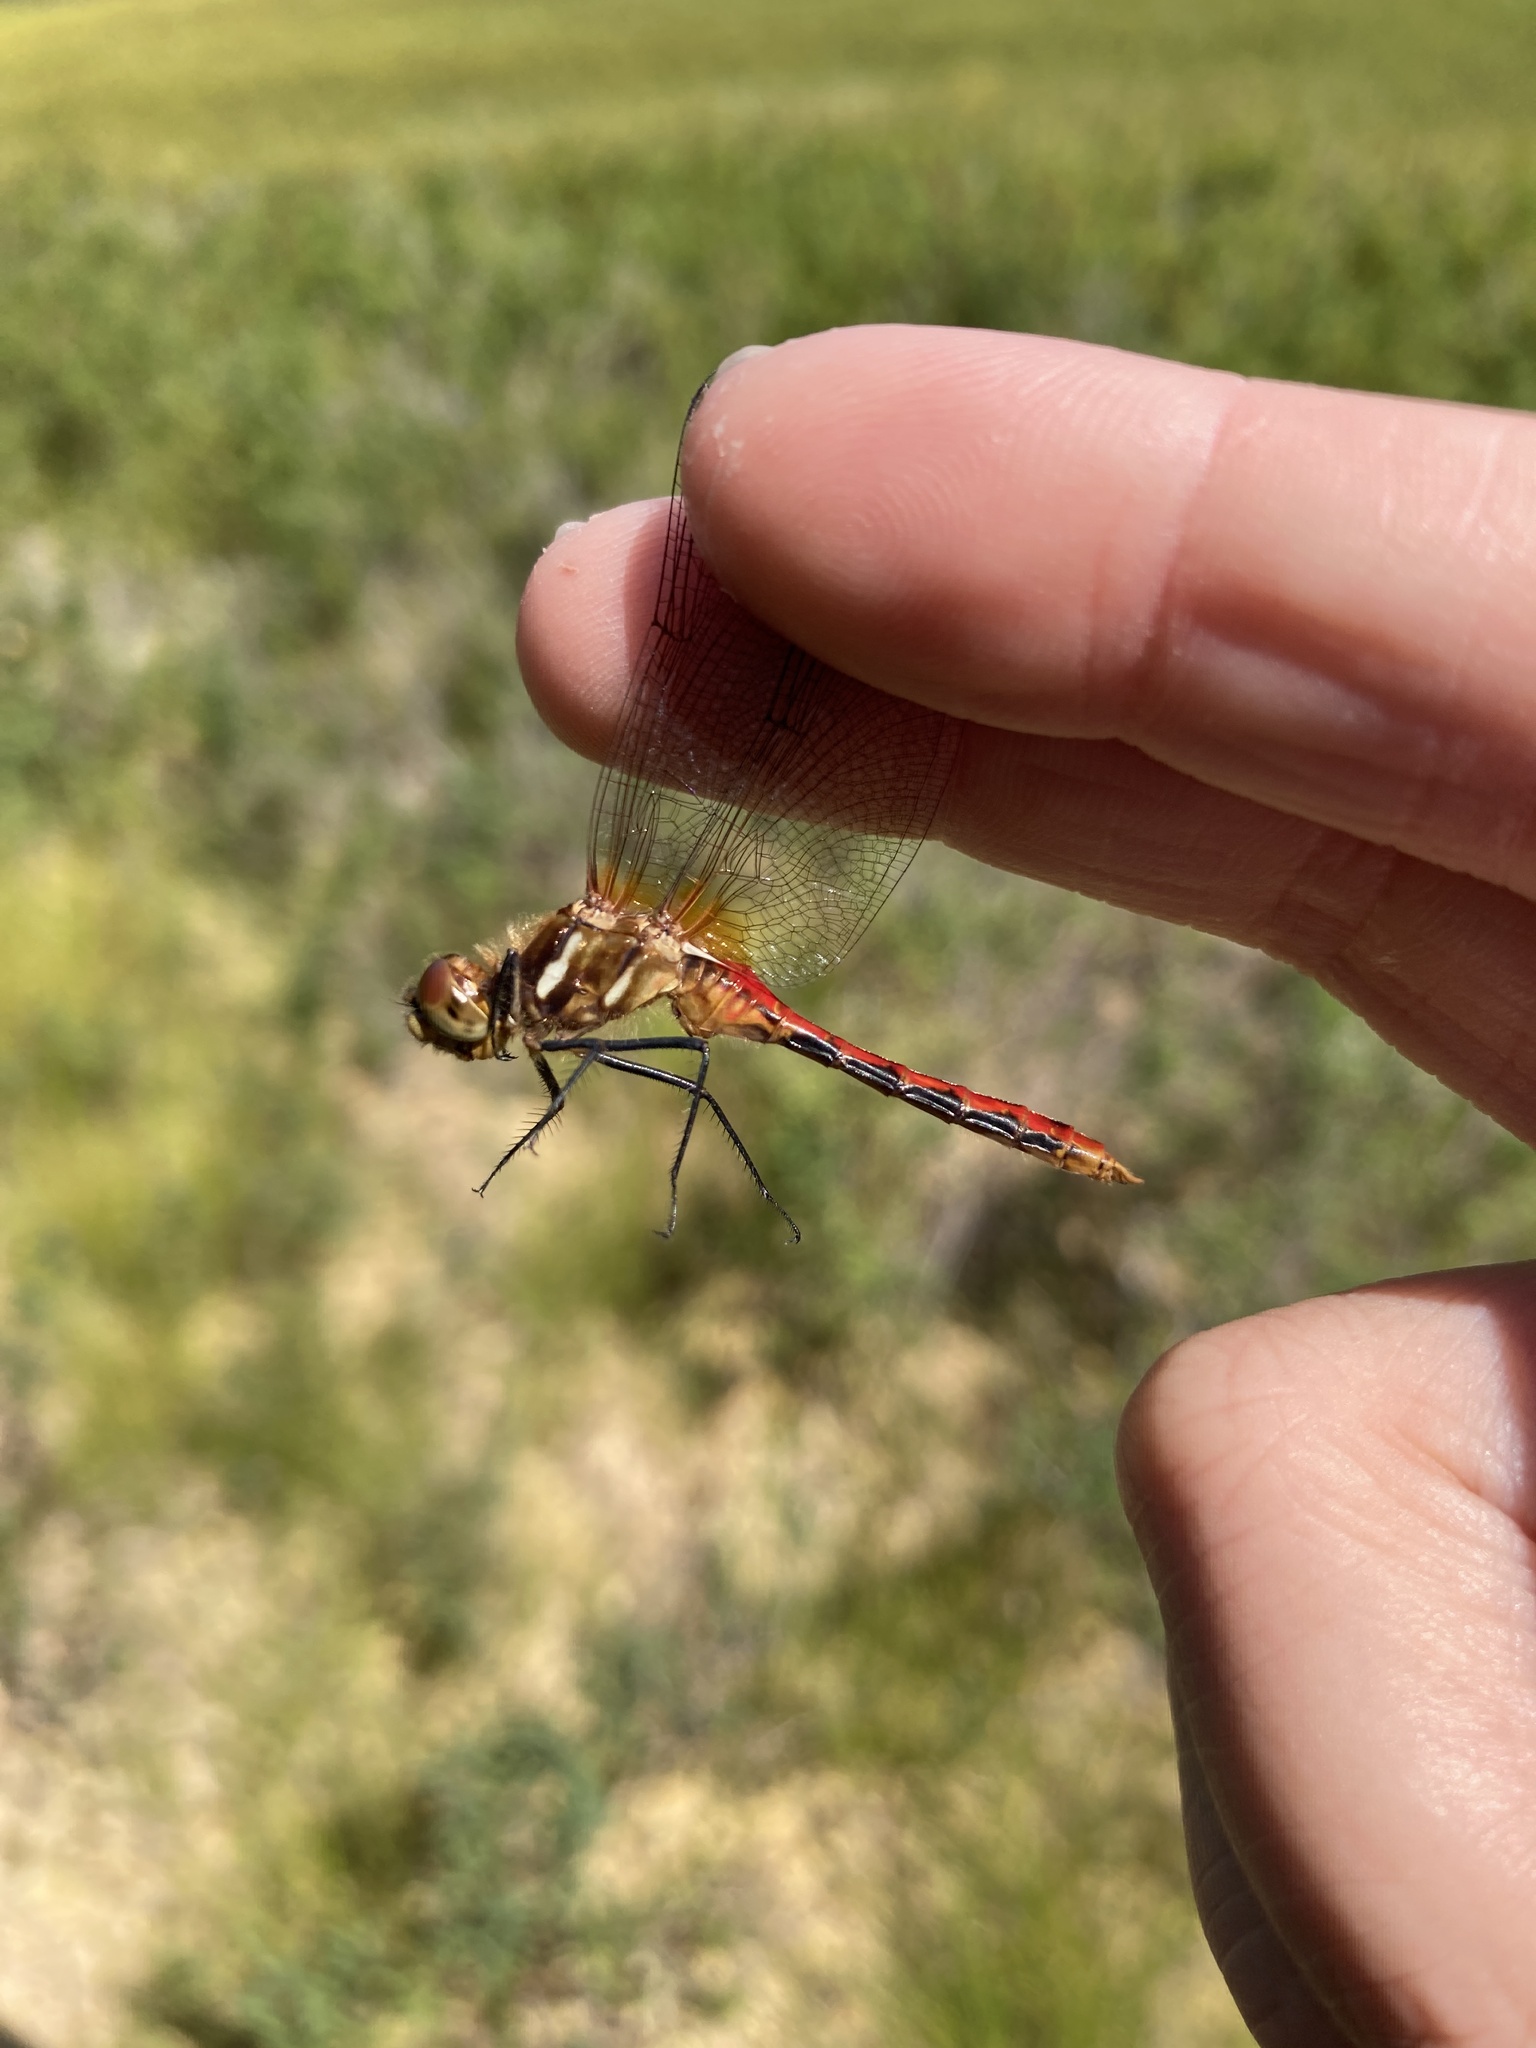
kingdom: Animalia
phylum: Arthropoda
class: Insecta
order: Odonata
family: Libellulidae
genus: Sympetrum
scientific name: Sympetrum pallipes
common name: Striped meadowhawk
